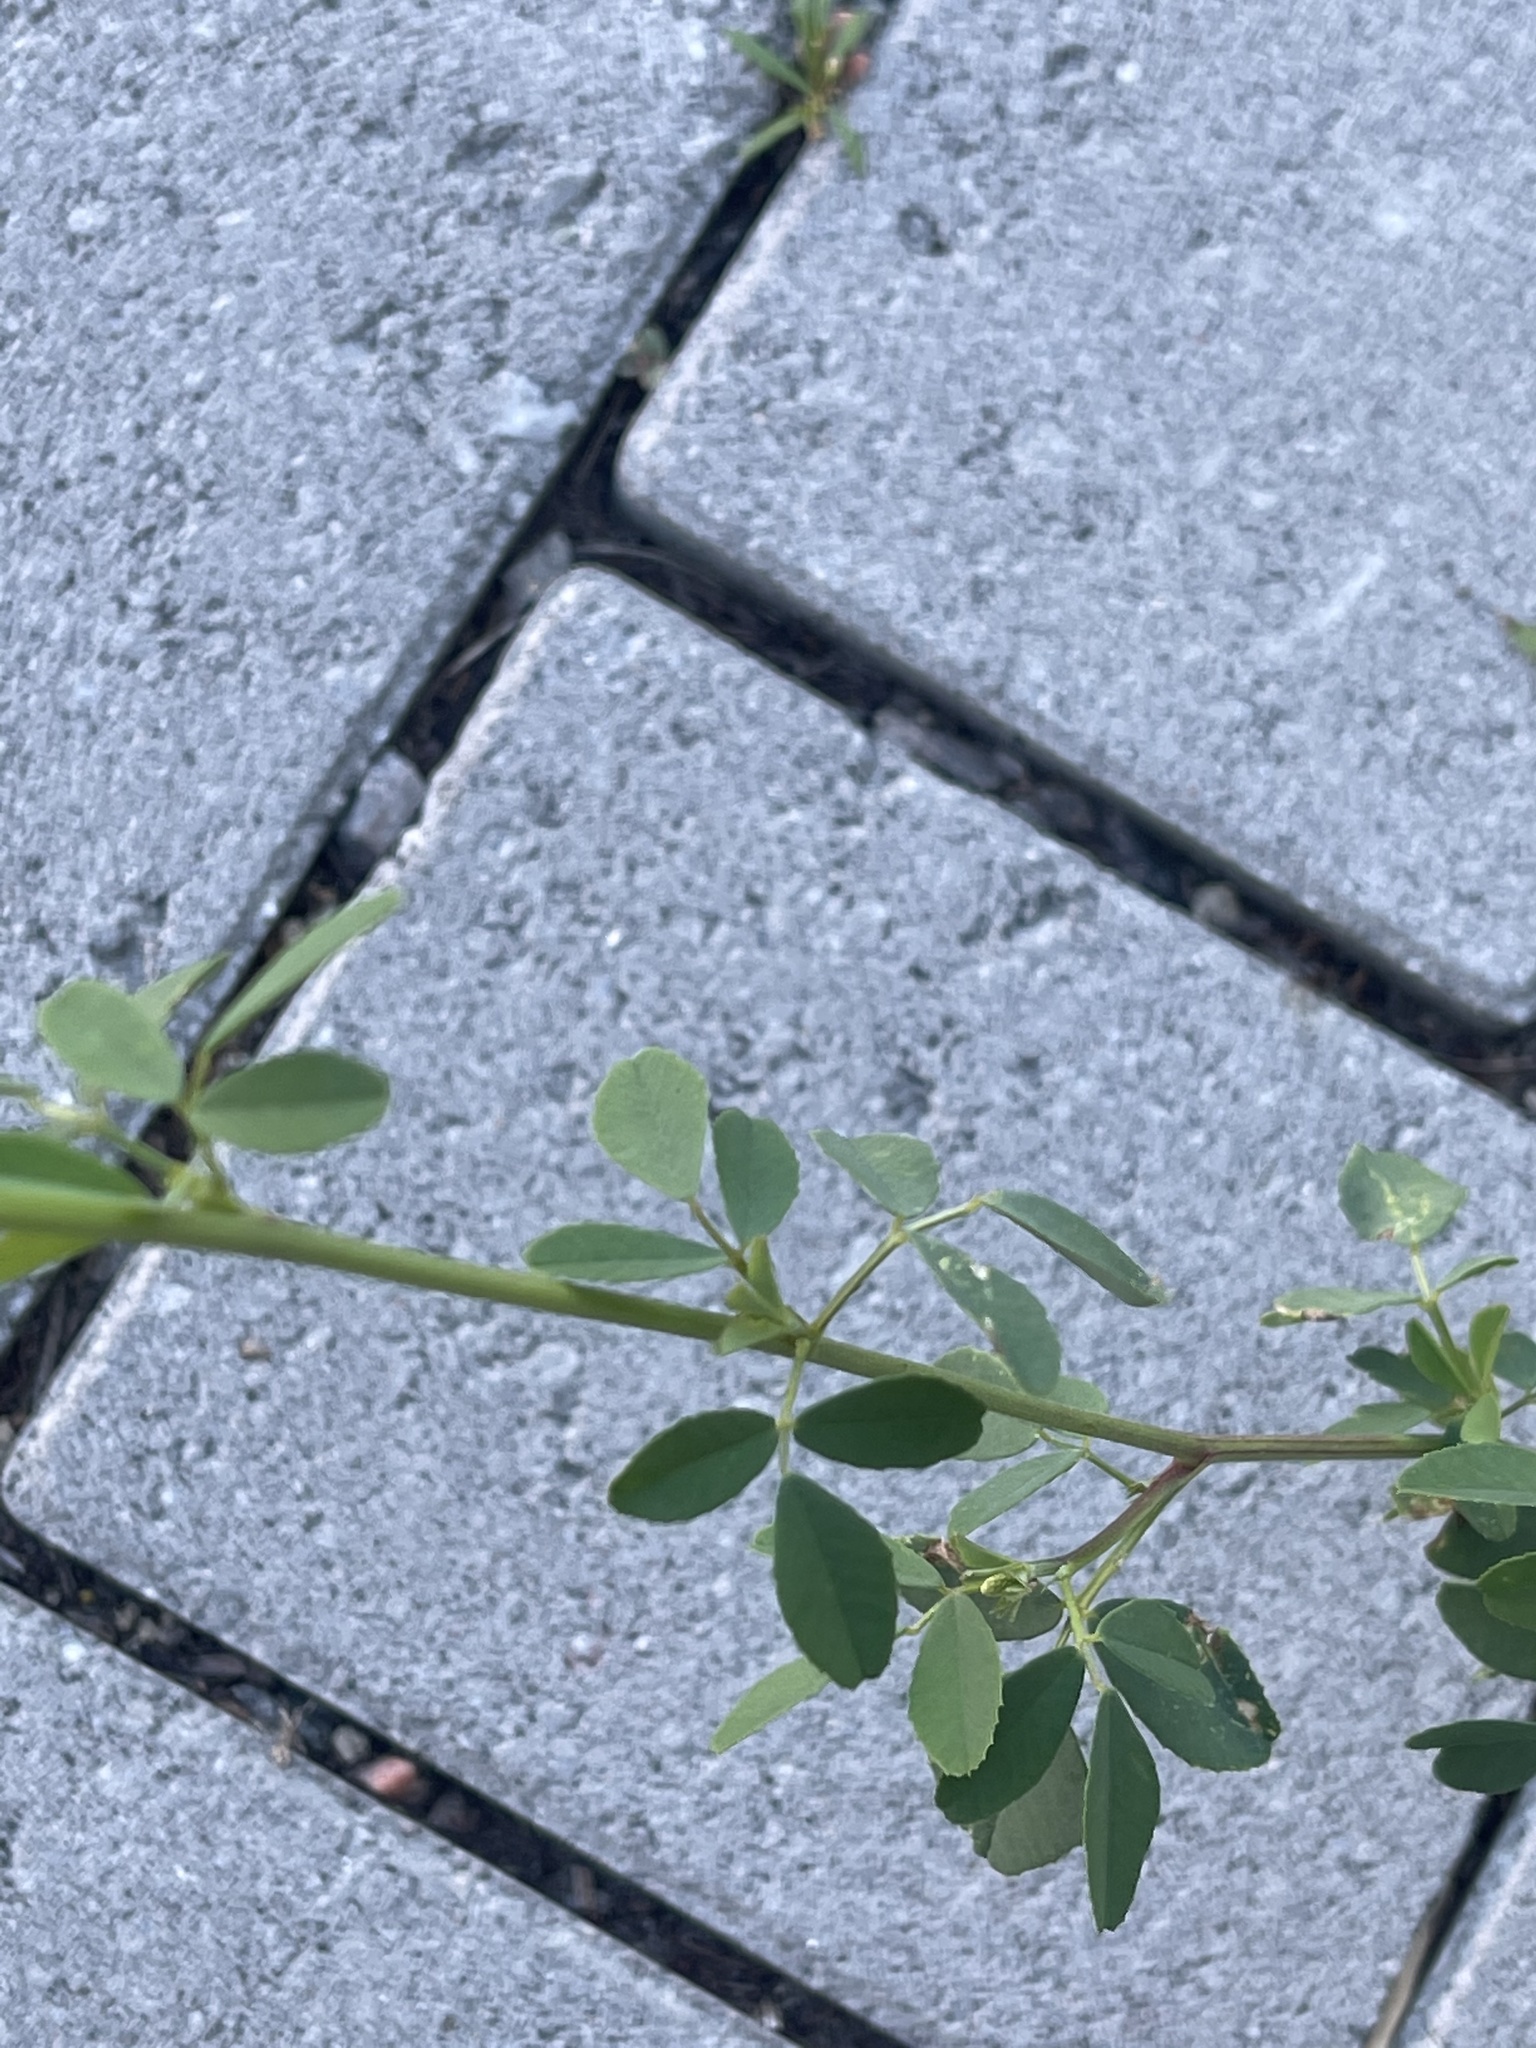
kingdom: Plantae
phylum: Tracheophyta
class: Magnoliopsida
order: Fabales
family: Fabaceae
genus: Melilotus
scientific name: Melilotus albus
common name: White melilot
